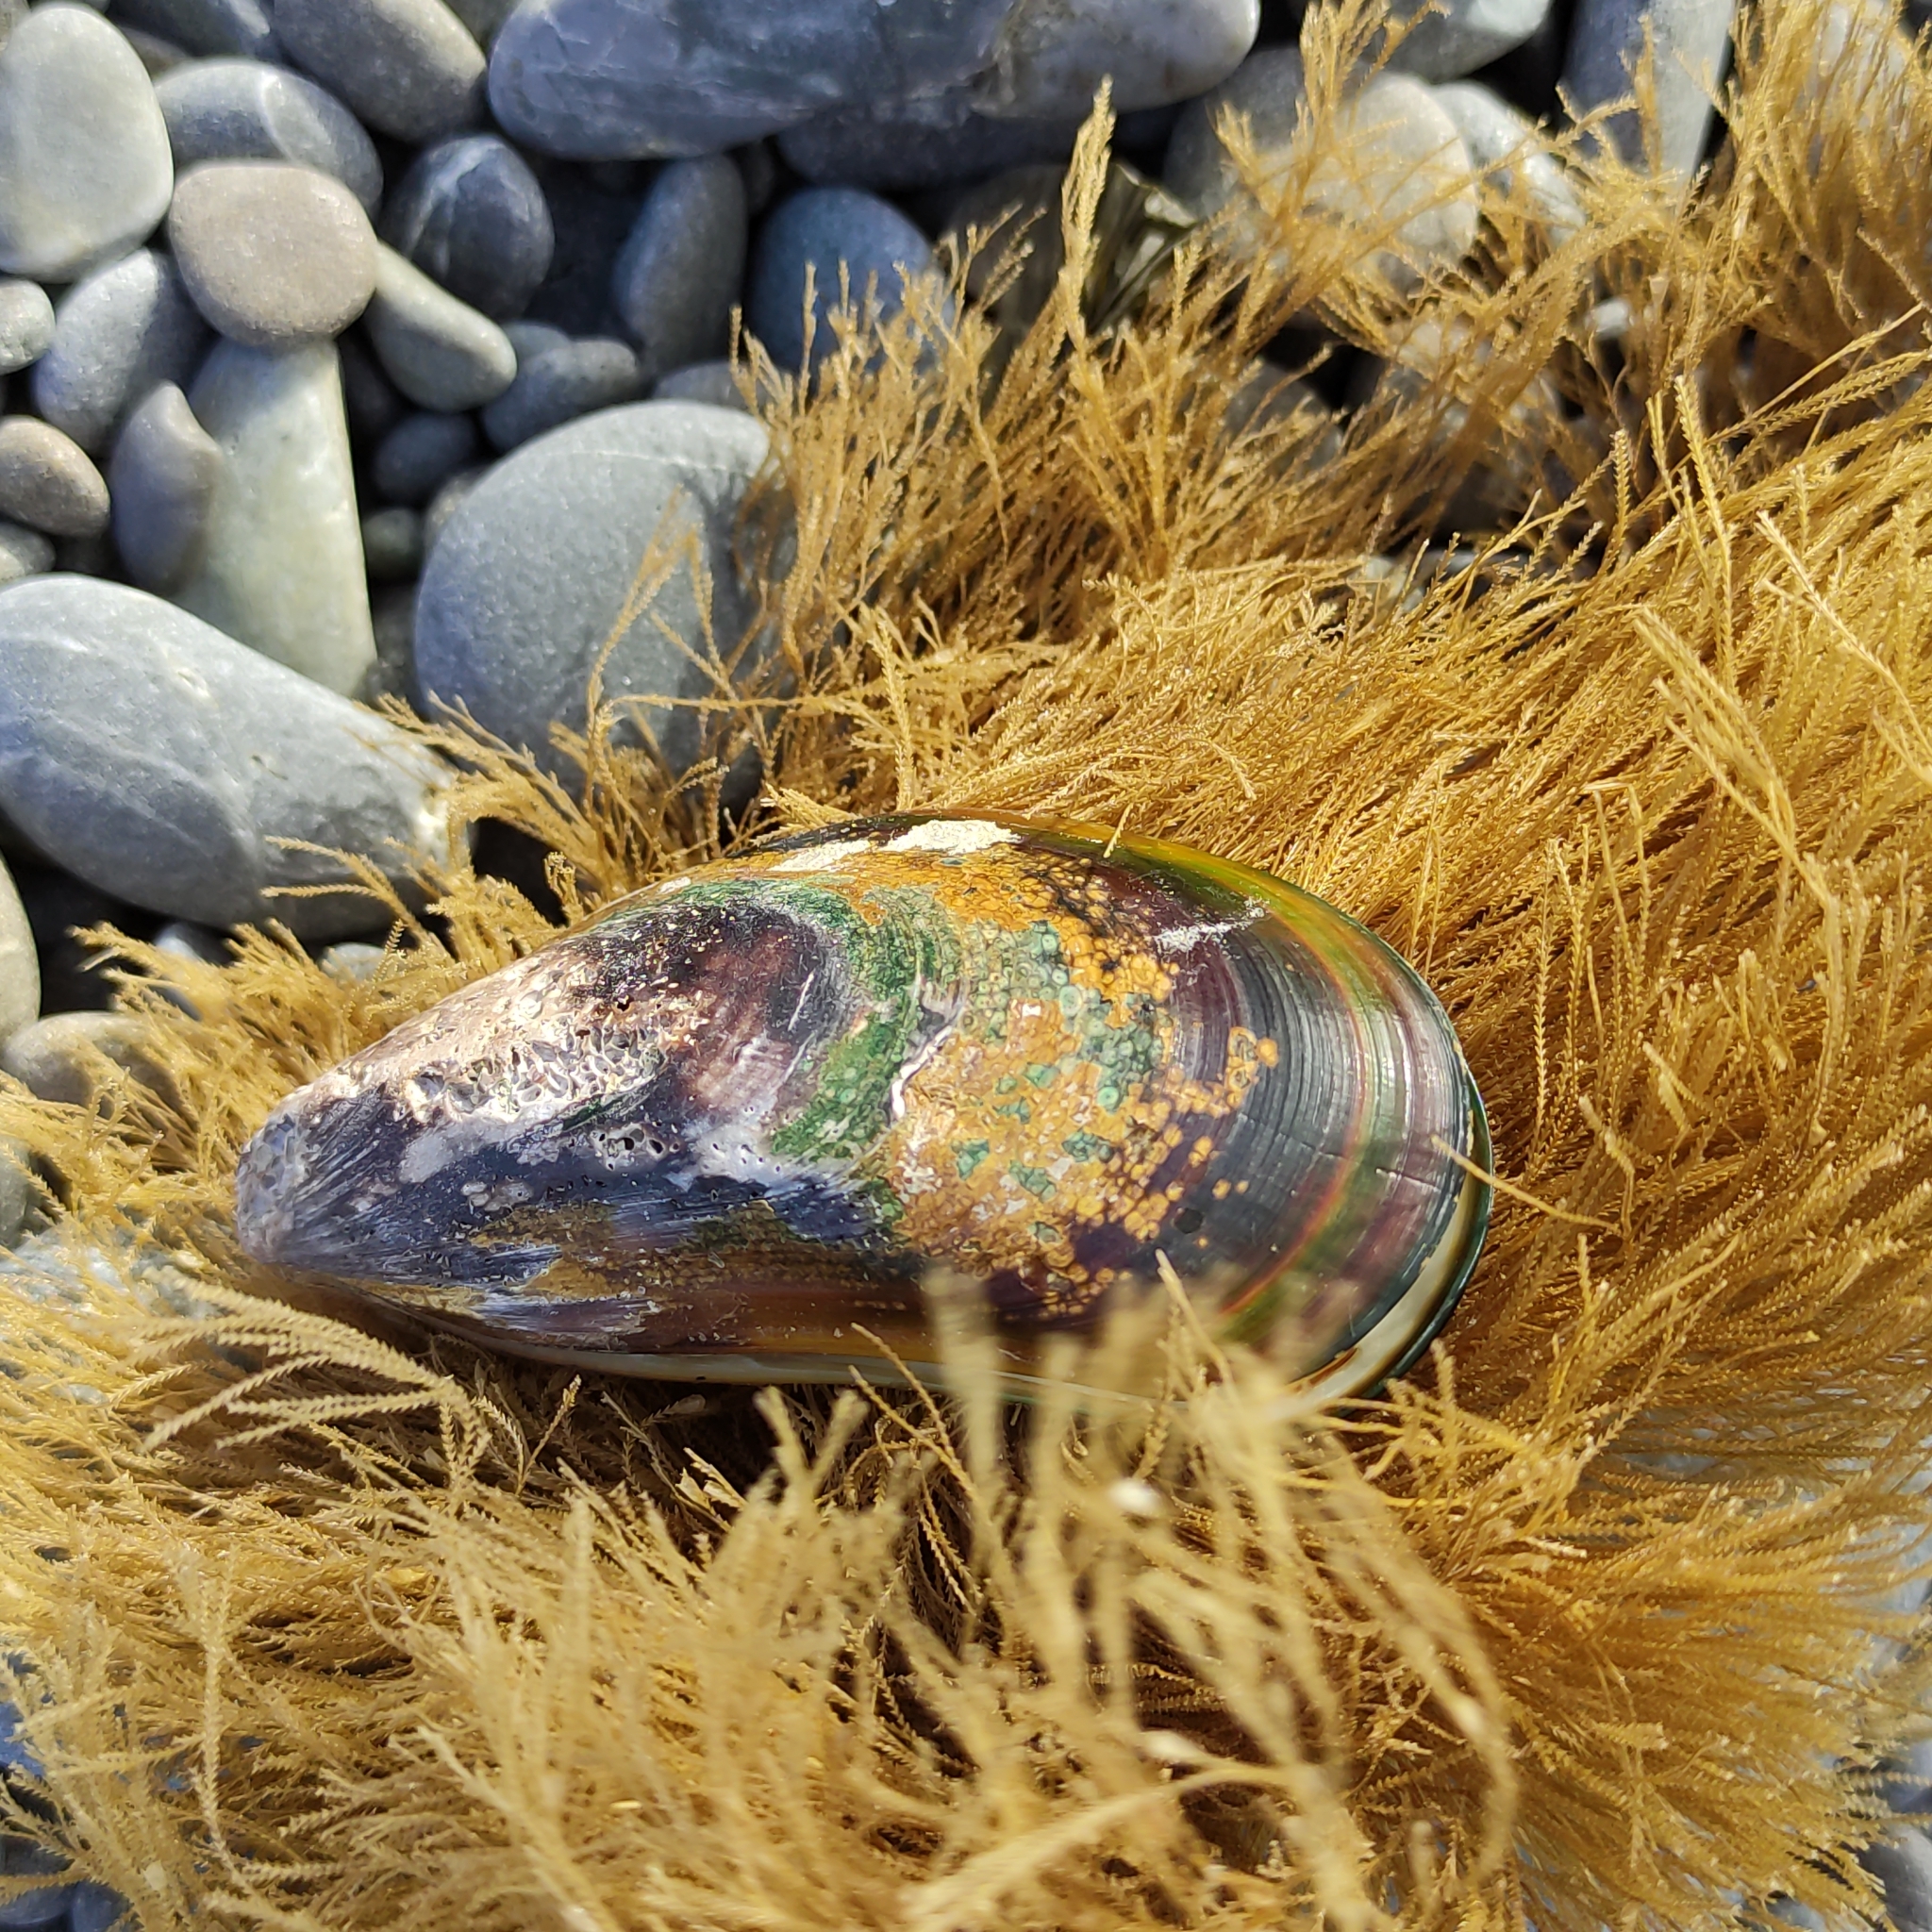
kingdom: Animalia
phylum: Mollusca
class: Bivalvia
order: Mytilida
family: Mytilidae
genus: Perna
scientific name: Perna canaliculus
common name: New zealand greenshelltm
